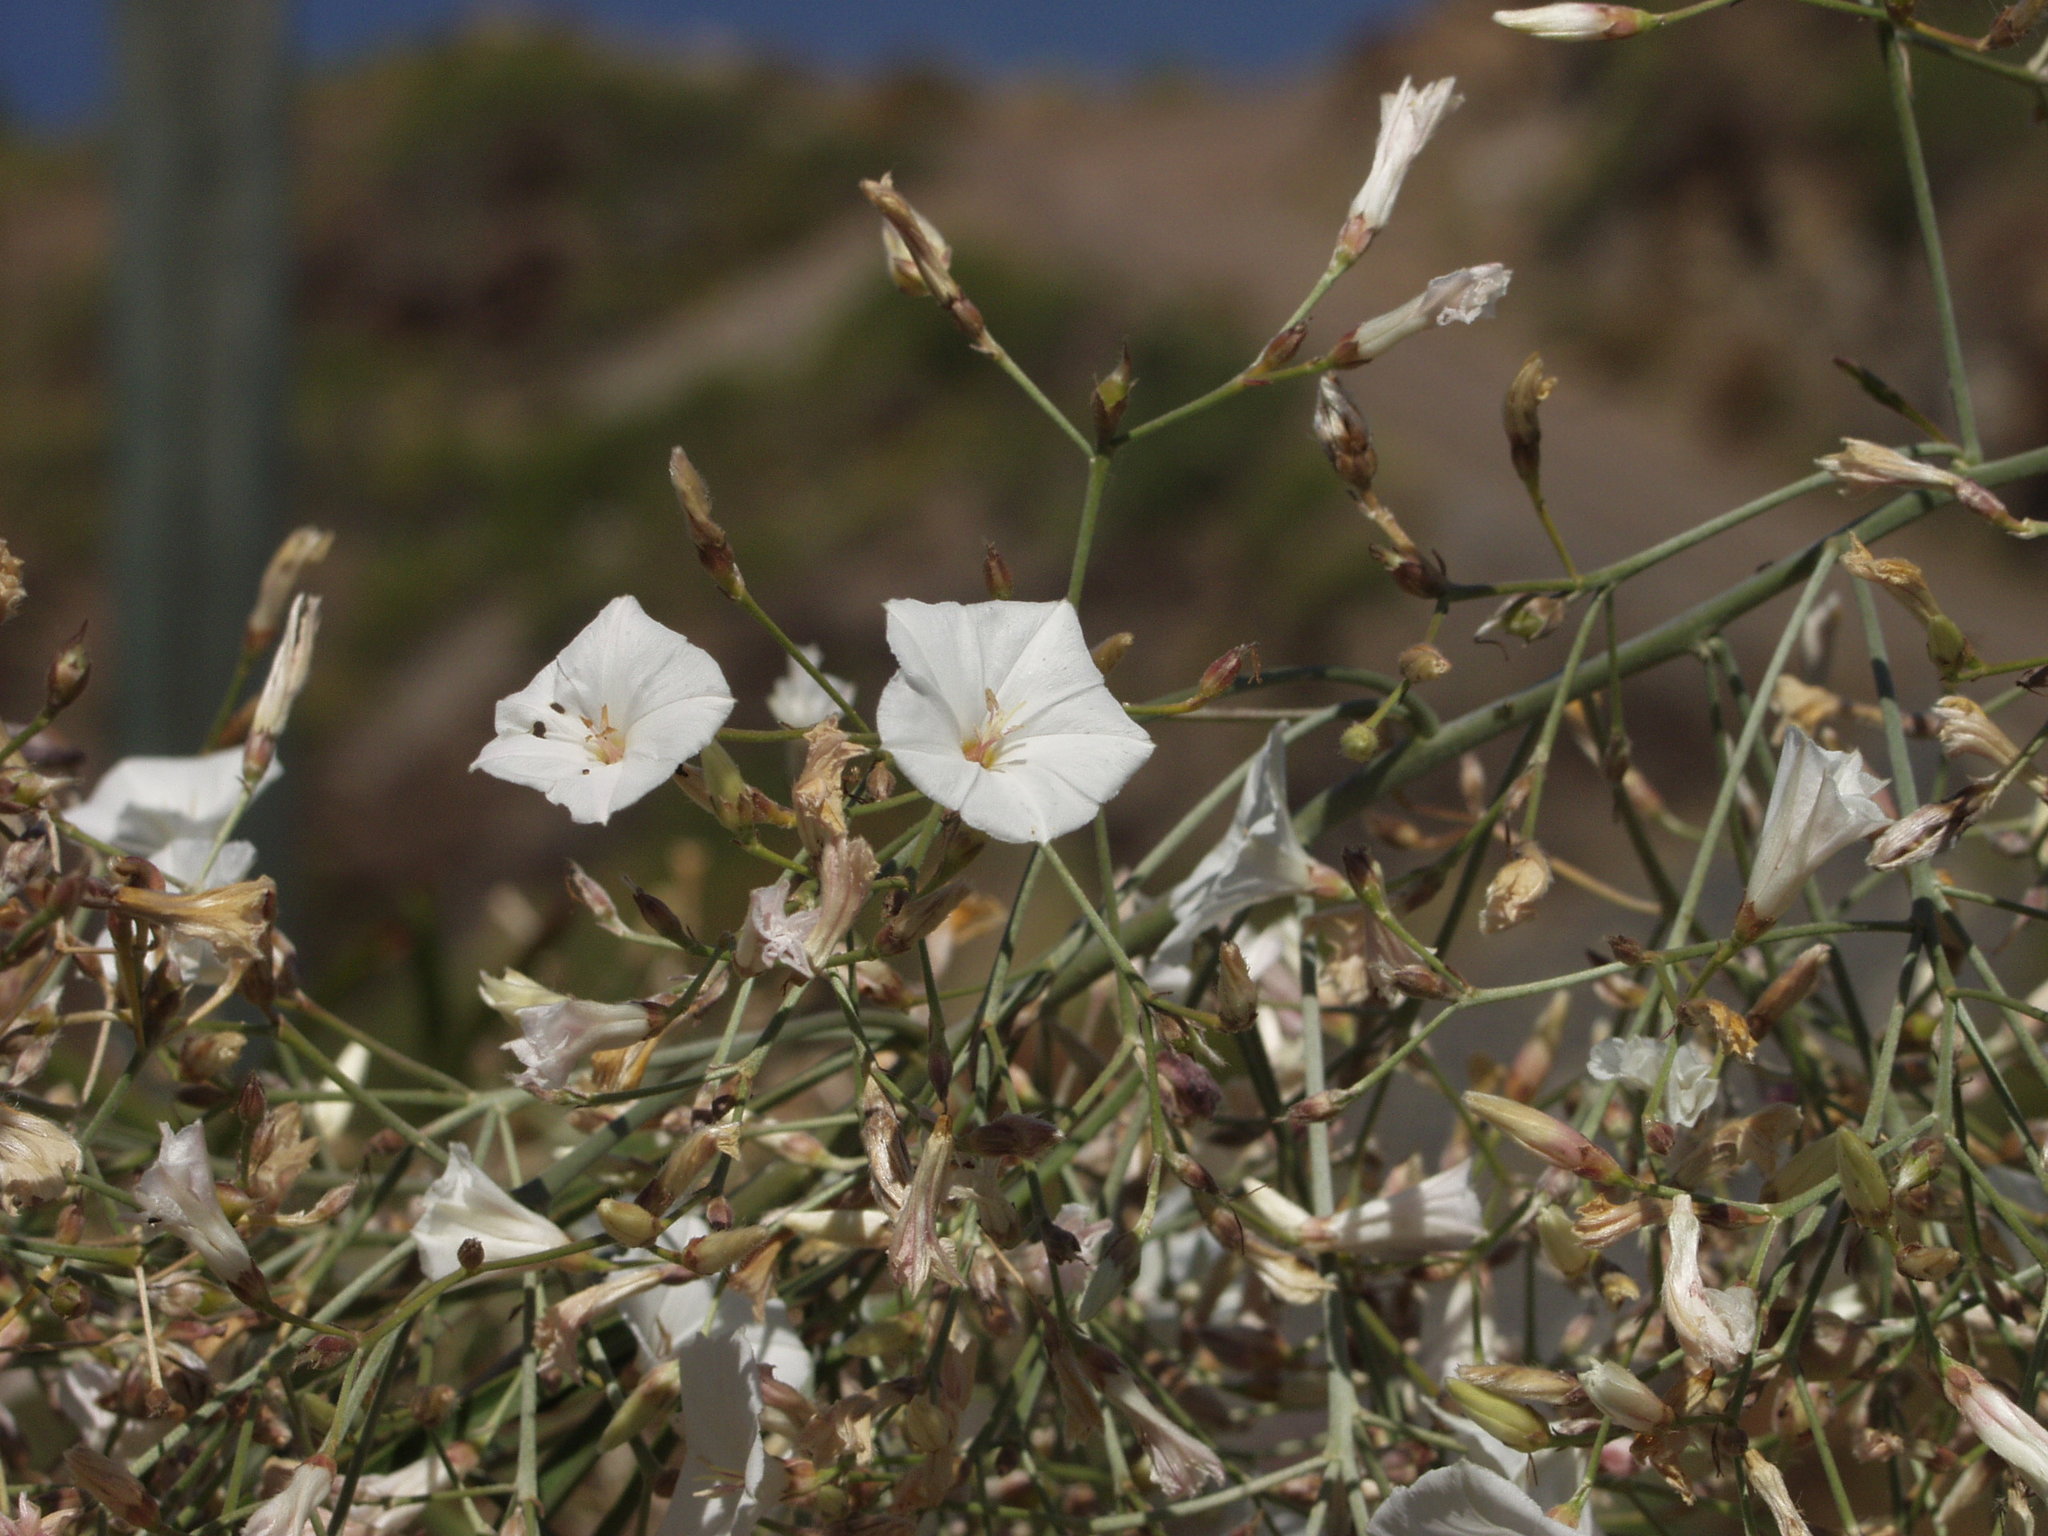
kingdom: Plantae
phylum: Tracheophyta
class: Magnoliopsida
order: Solanales
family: Convolvulaceae
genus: Convolvulus
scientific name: Convolvulus floridus
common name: Guadil
